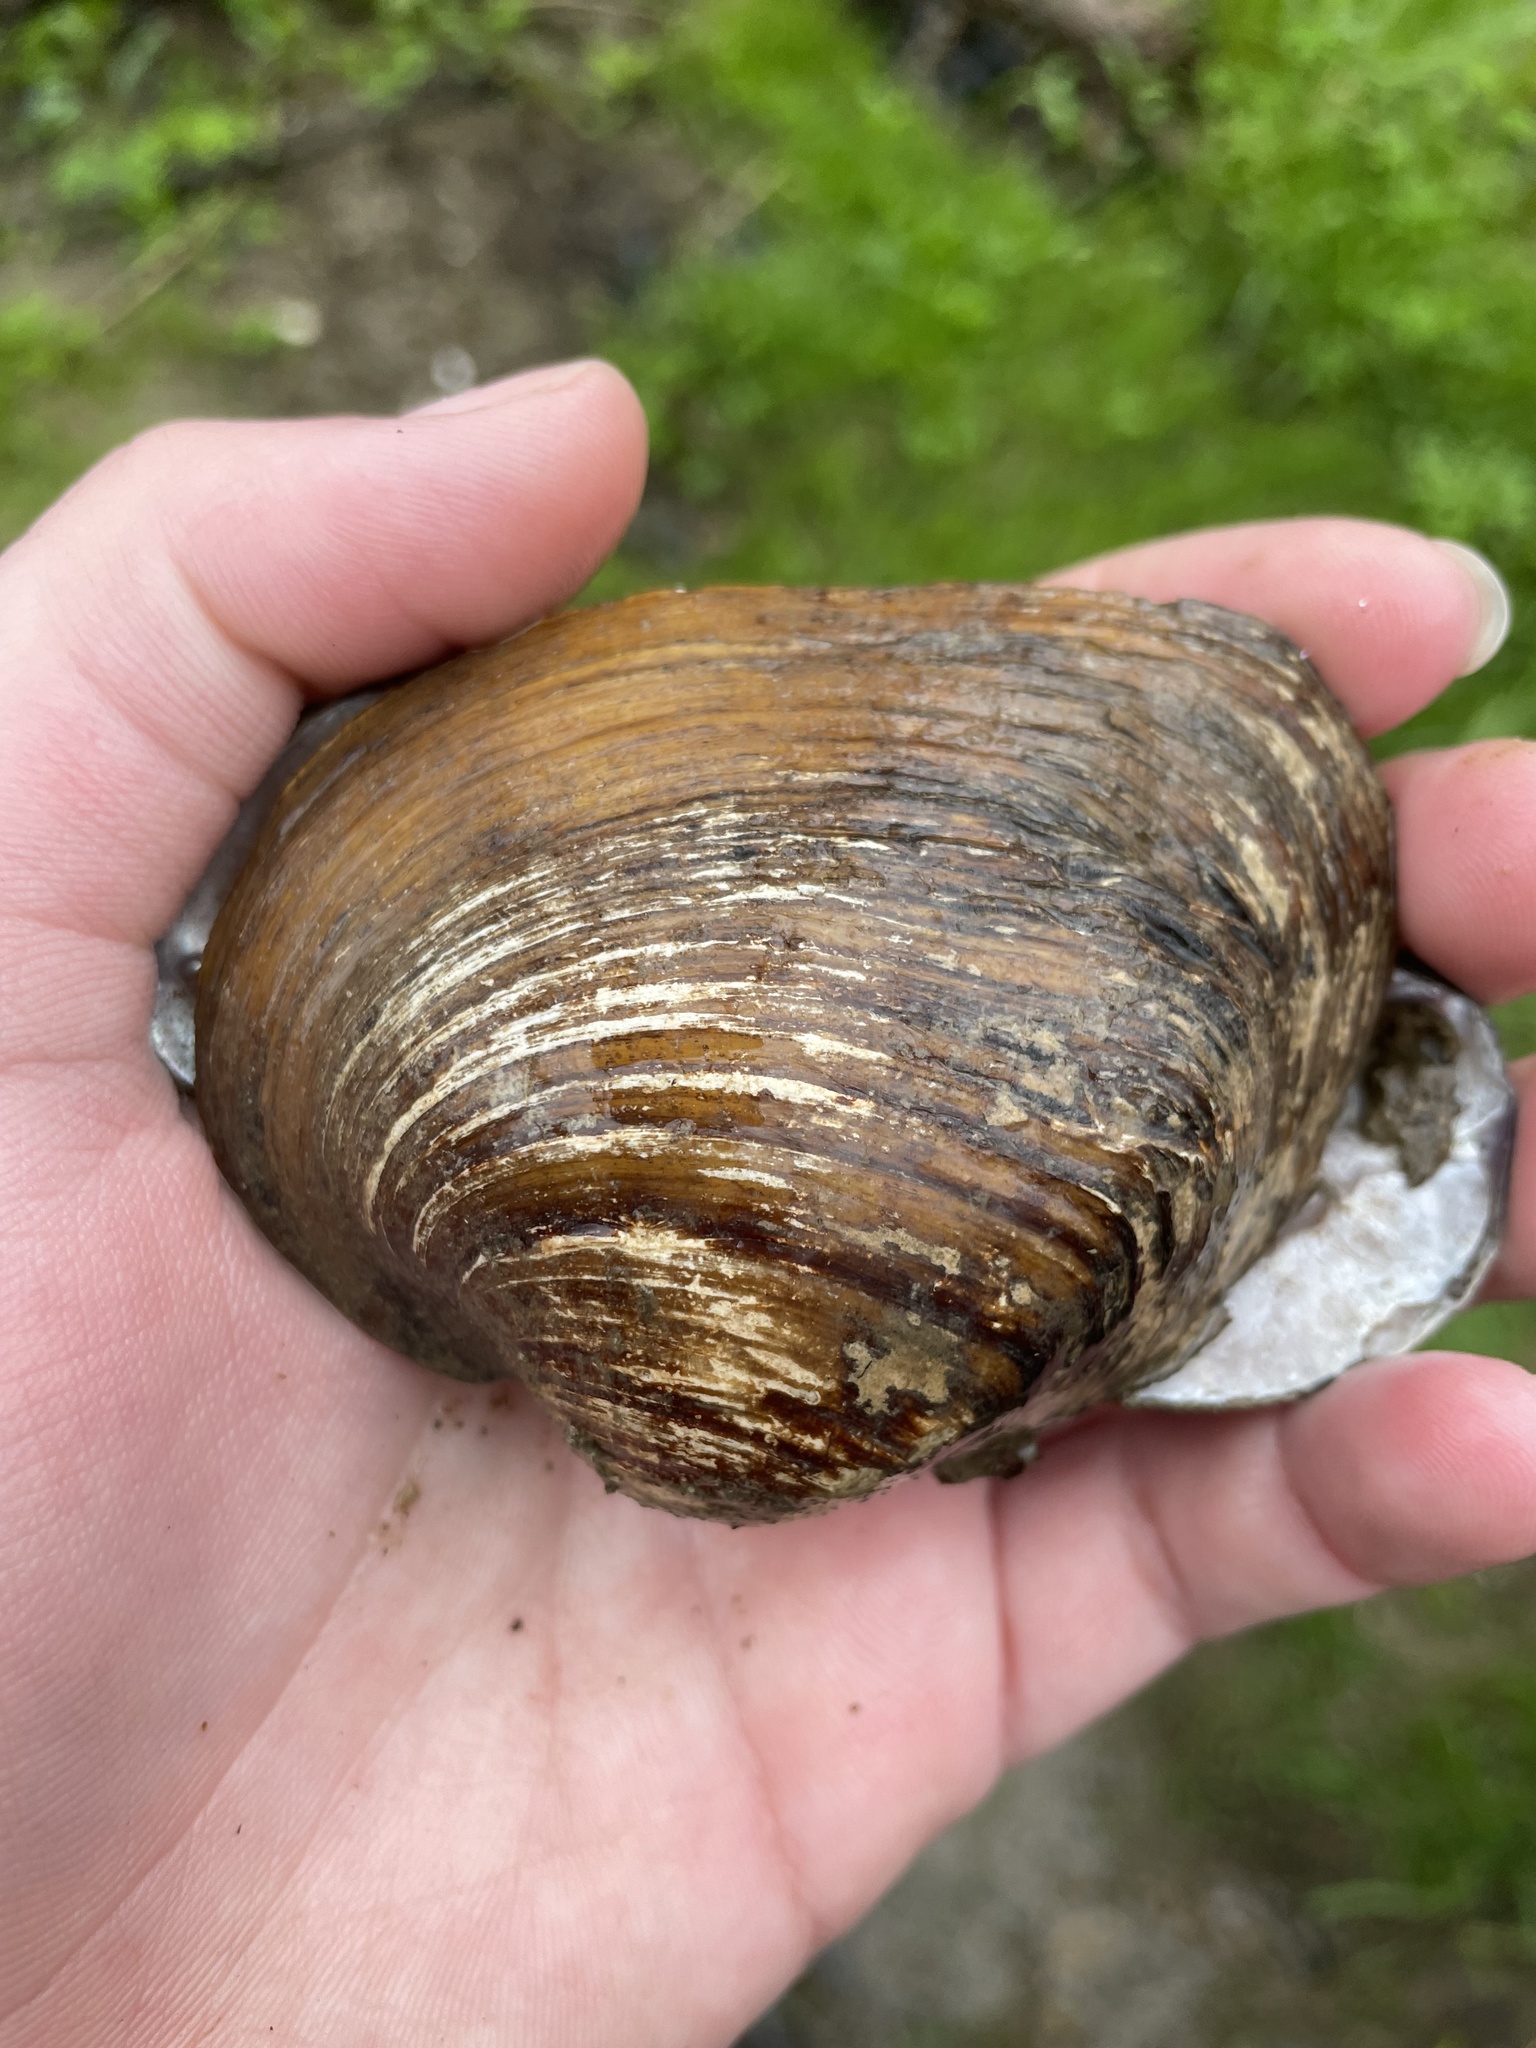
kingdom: Animalia
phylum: Mollusca
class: Bivalvia
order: Unionida
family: Unionidae
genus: Fusconaia
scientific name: Fusconaia flava
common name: Wabash pigtoe
